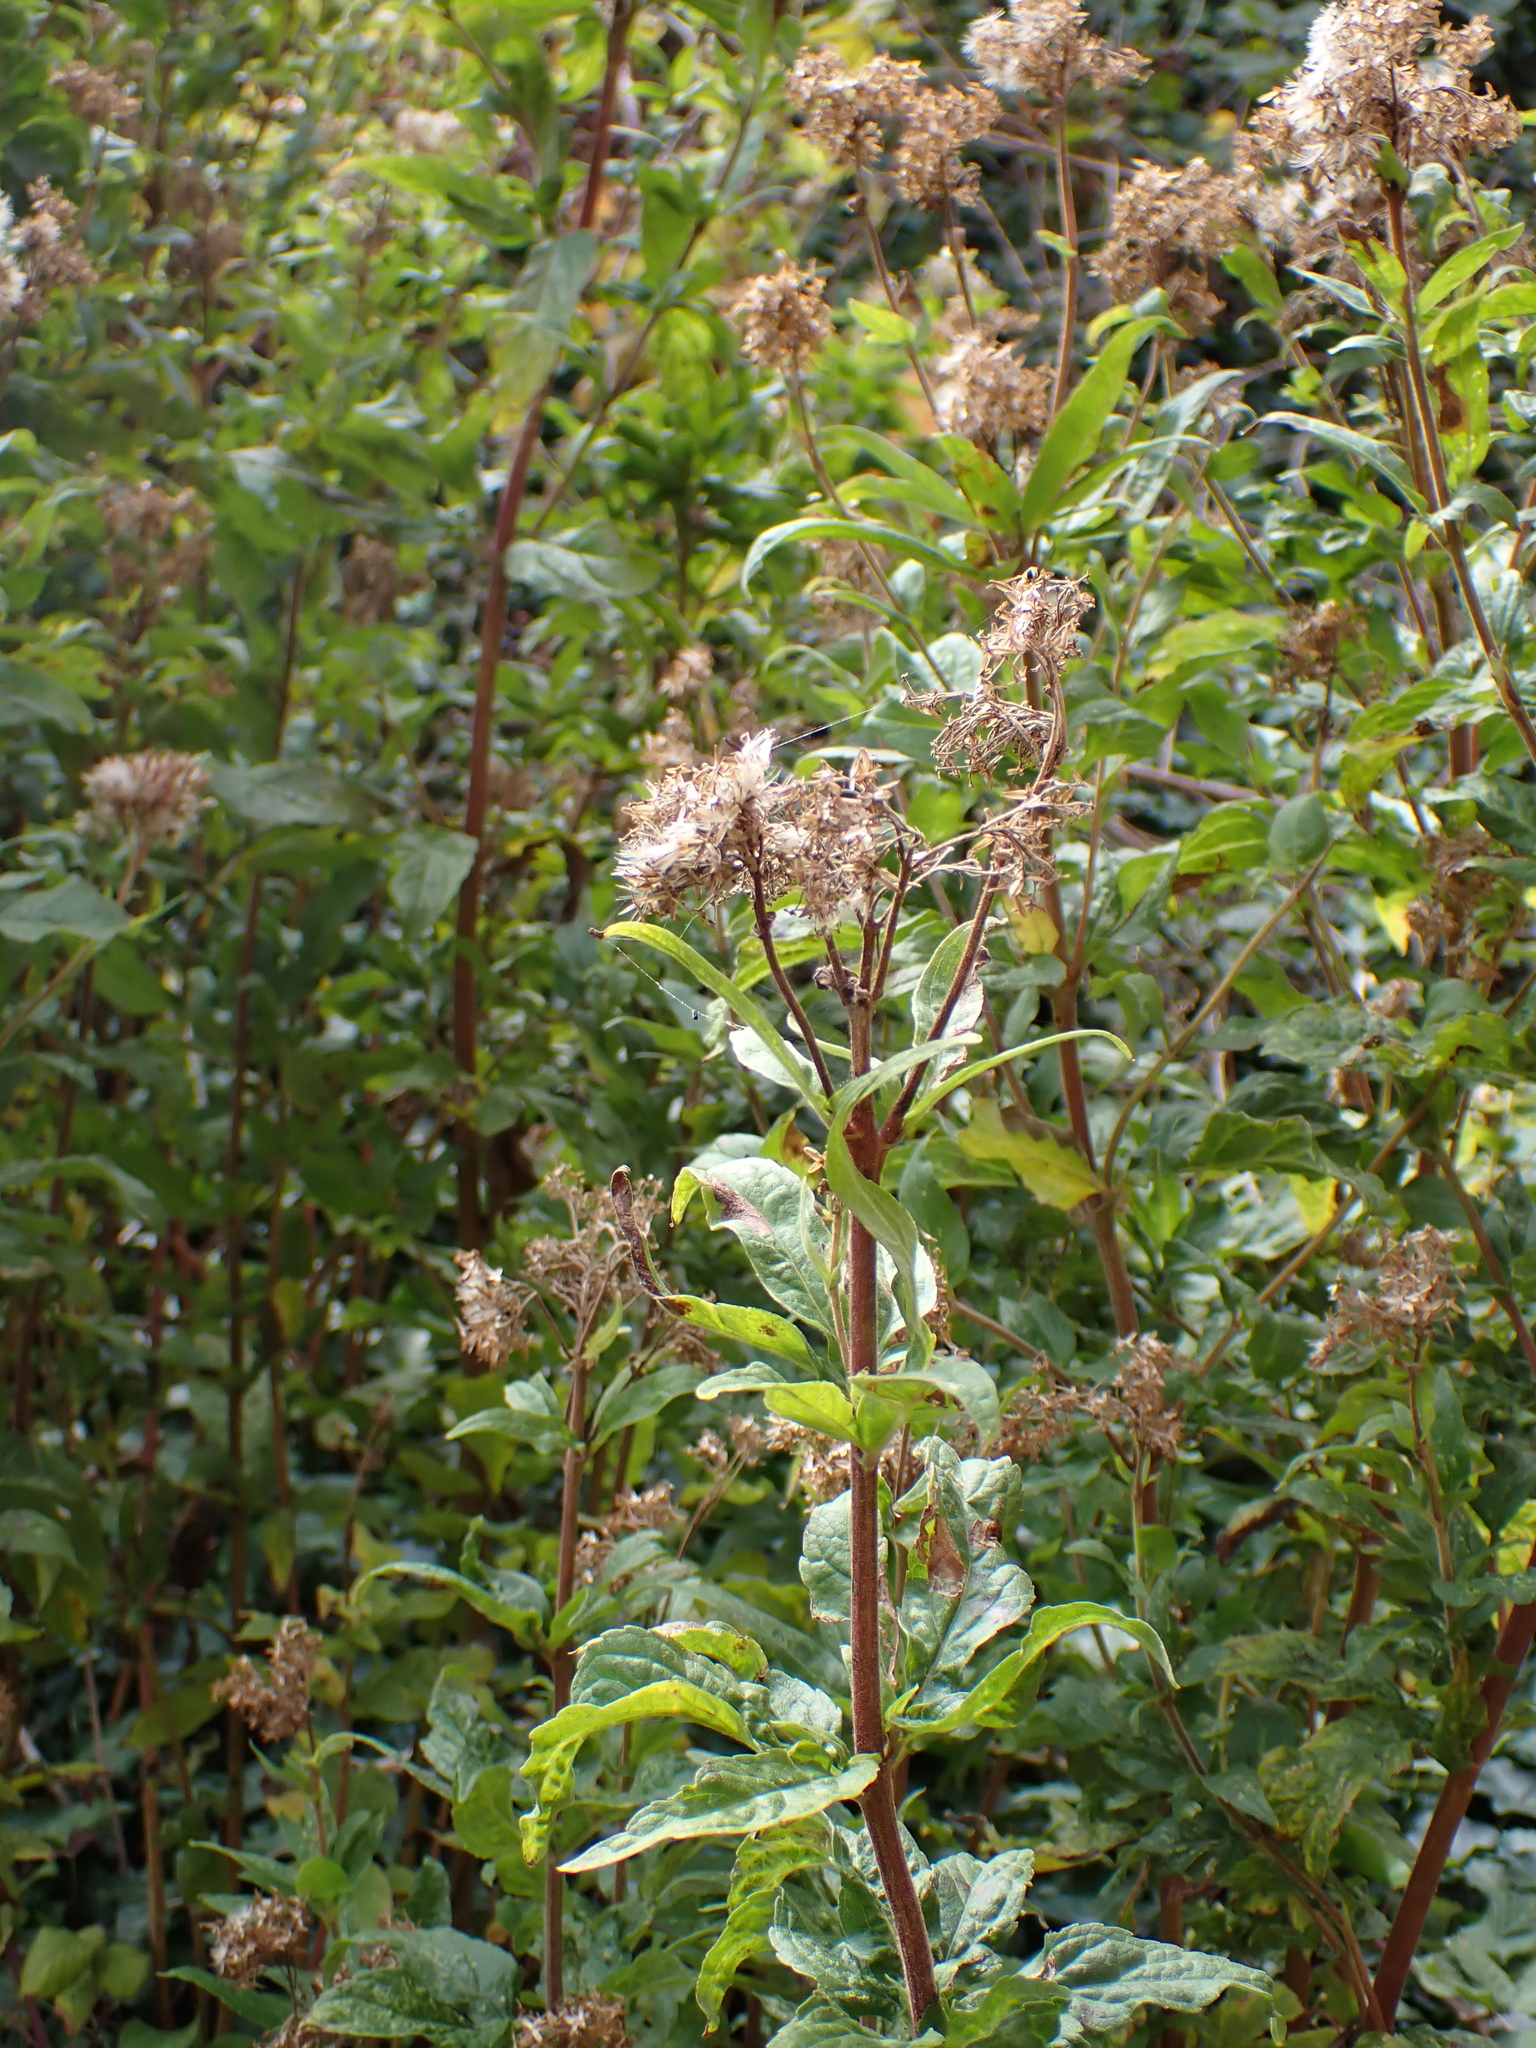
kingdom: Plantae
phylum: Tracheophyta
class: Magnoliopsida
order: Asterales
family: Asteraceae
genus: Eupatorium
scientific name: Eupatorium cannabinum
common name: Hemp-agrimony
